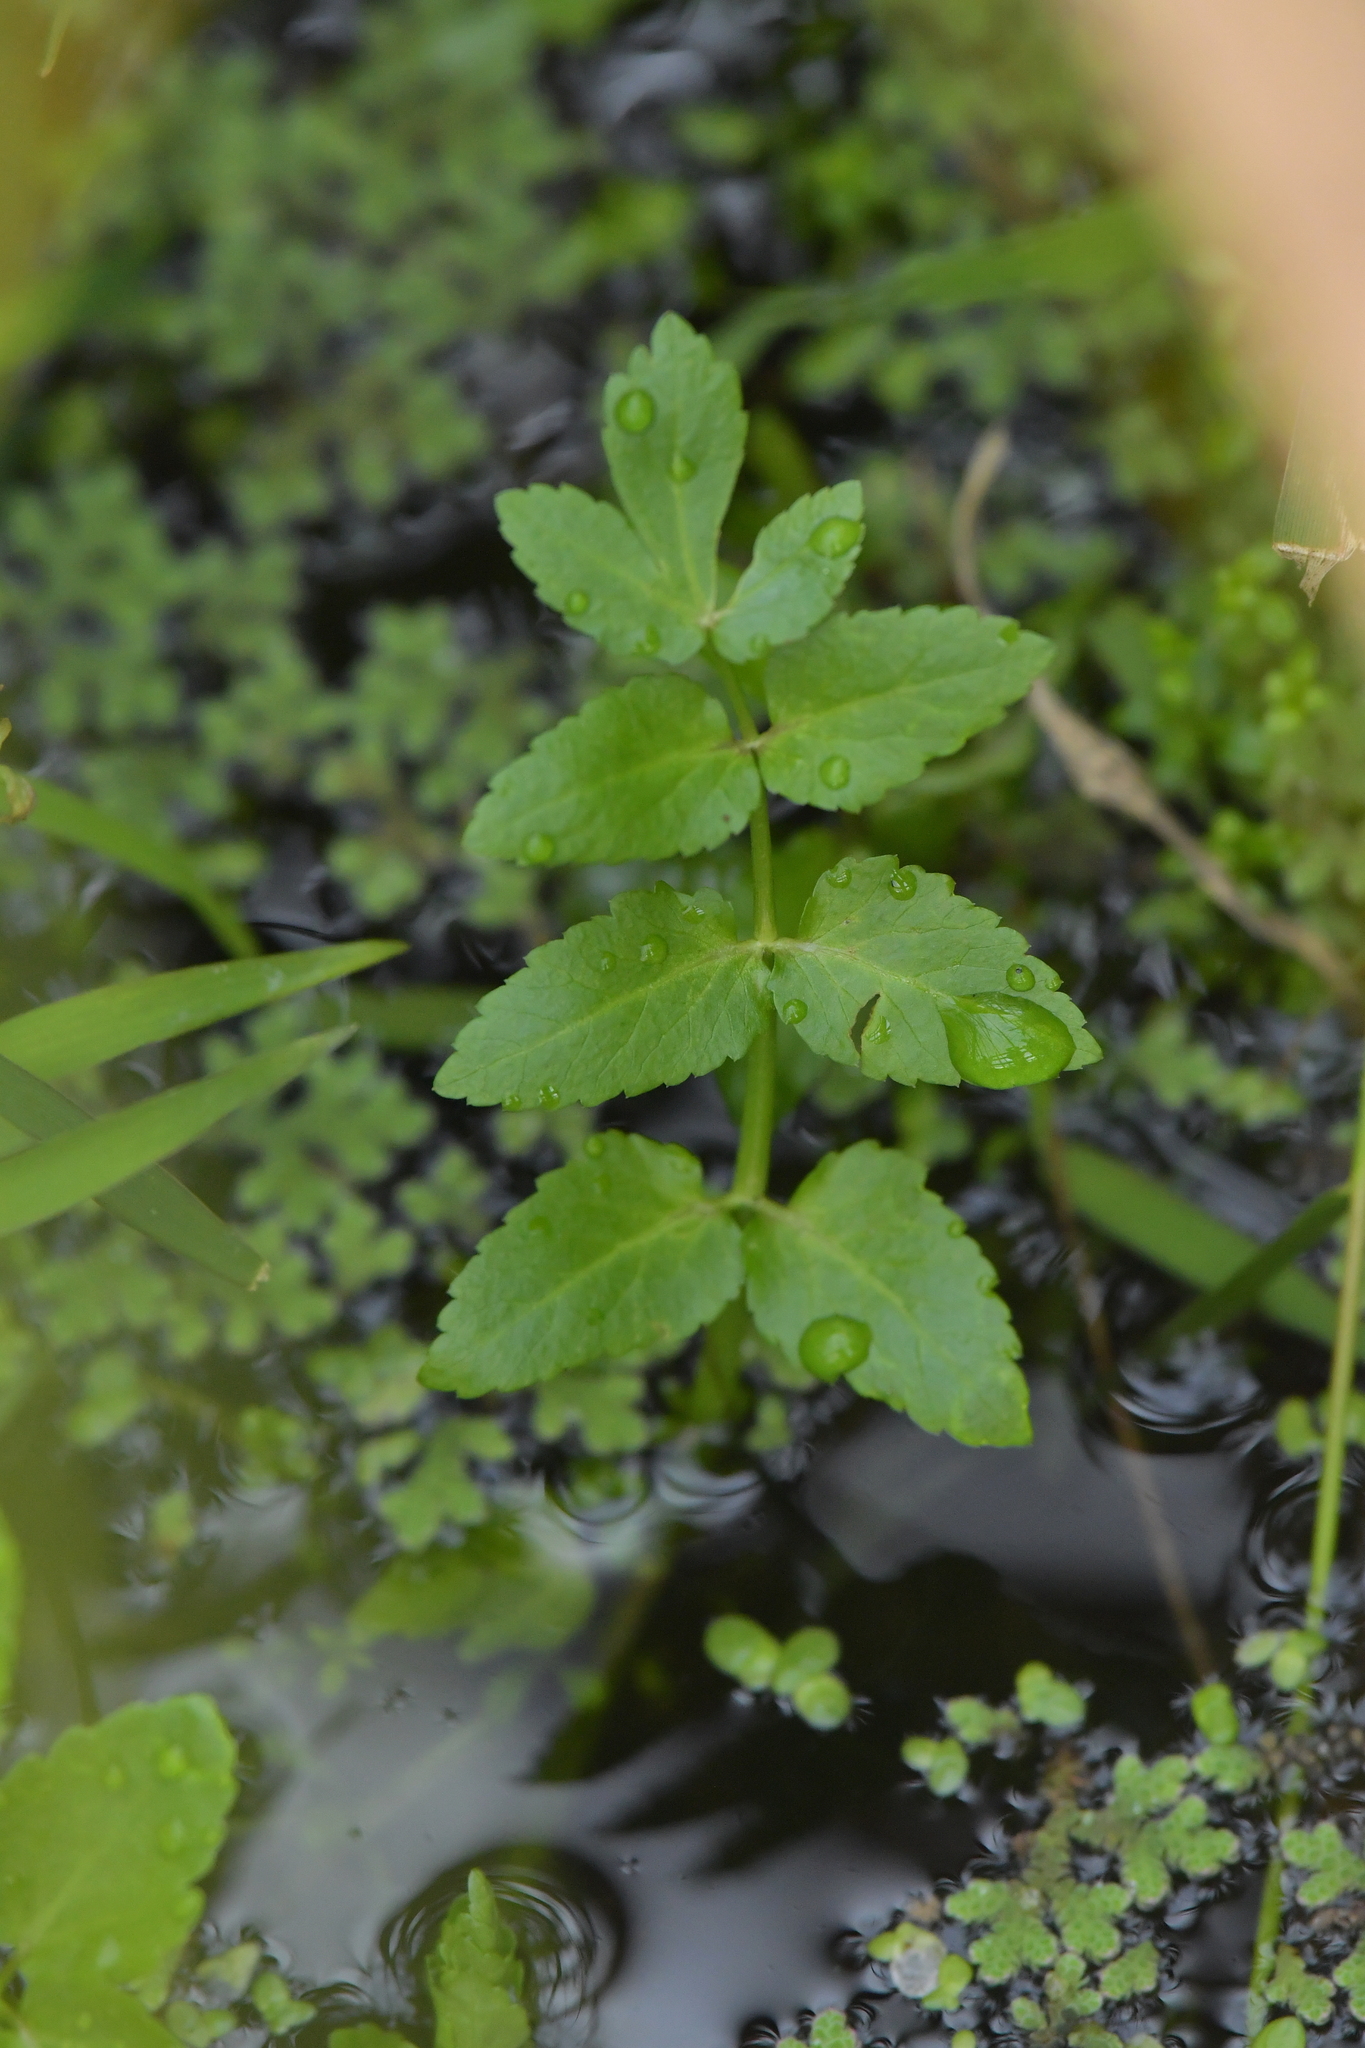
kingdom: Plantae
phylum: Tracheophyta
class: Magnoliopsida
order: Apiales
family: Apiaceae
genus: Helosciadium
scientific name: Helosciadium nodiflorum
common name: Fool's-watercress
